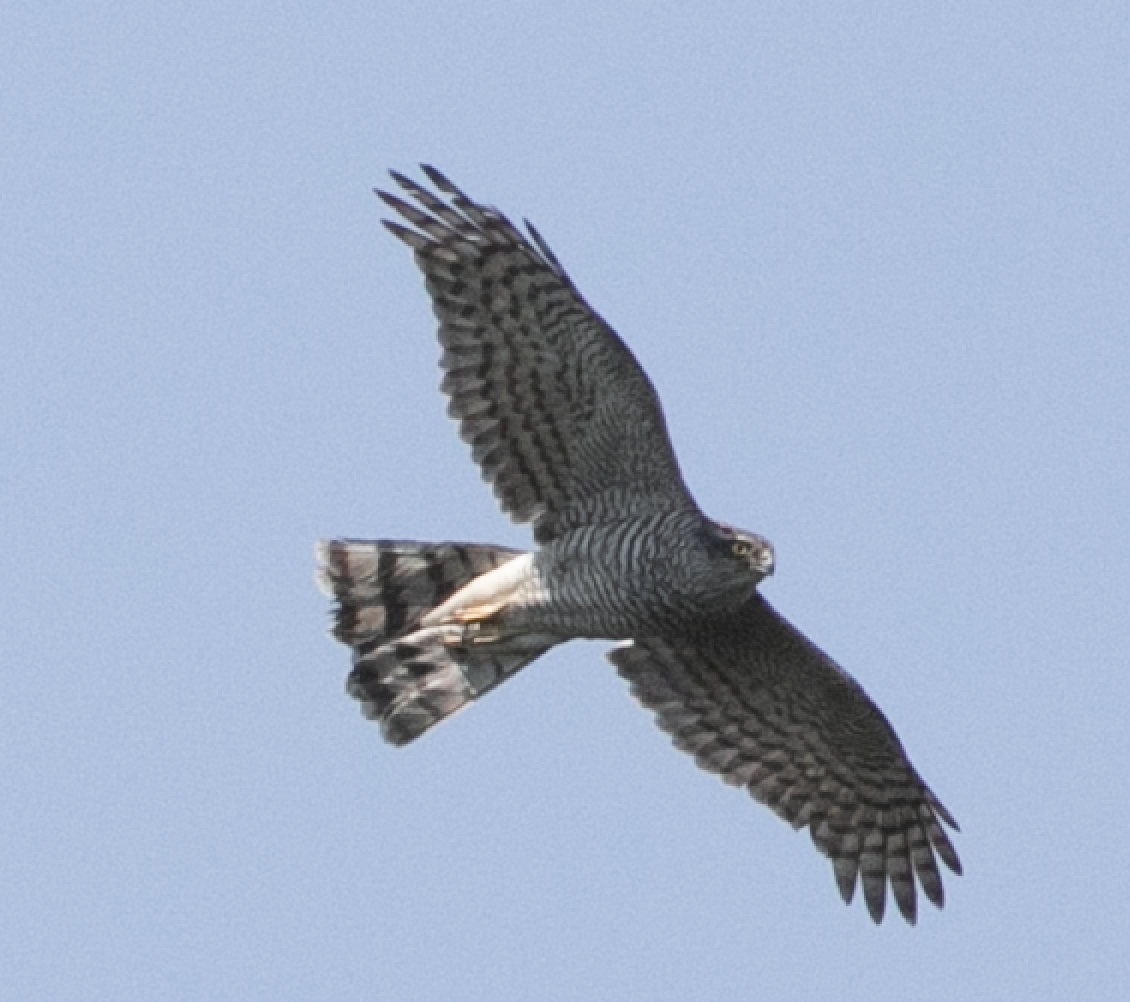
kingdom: Animalia
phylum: Chordata
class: Aves
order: Accipitriformes
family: Accipitridae
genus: Accipiter
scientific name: Accipiter nisus
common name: Eurasian sparrowhawk
